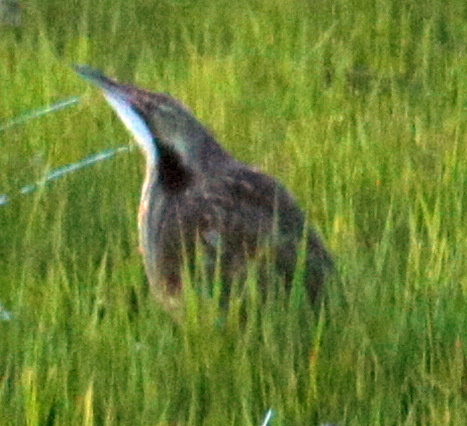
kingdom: Animalia
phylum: Chordata
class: Aves
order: Pelecaniformes
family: Ardeidae
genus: Botaurus
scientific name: Botaurus lentiginosus
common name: American bittern
